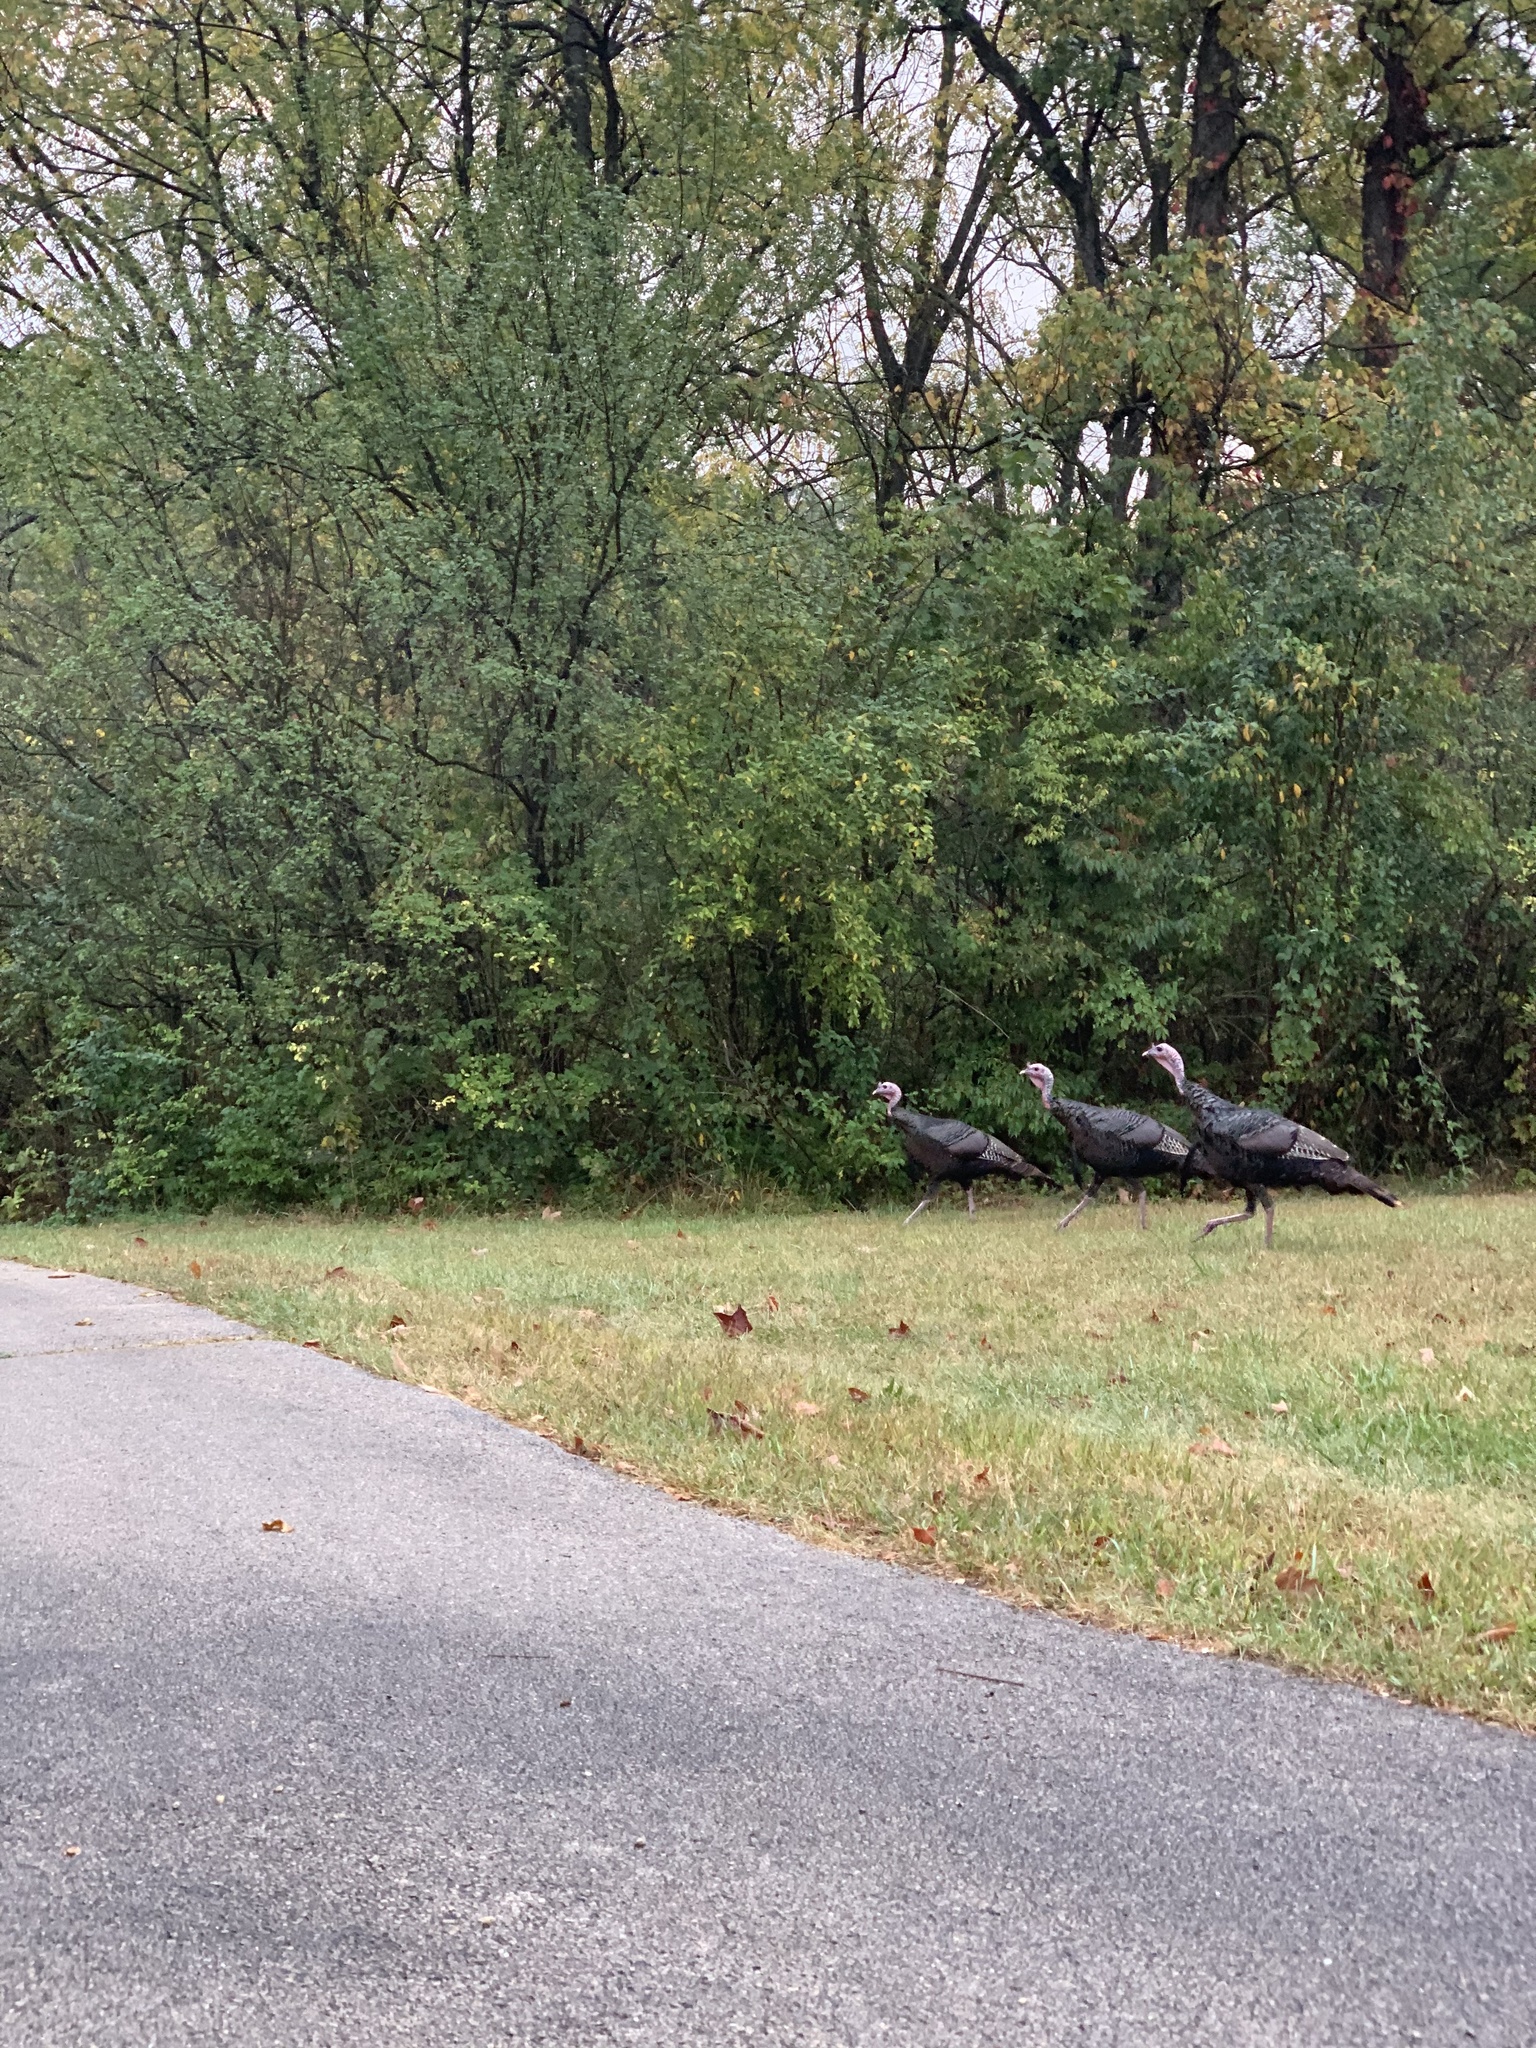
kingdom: Animalia
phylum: Chordata
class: Aves
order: Galliformes
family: Phasianidae
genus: Meleagris
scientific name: Meleagris gallopavo
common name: Wild turkey
